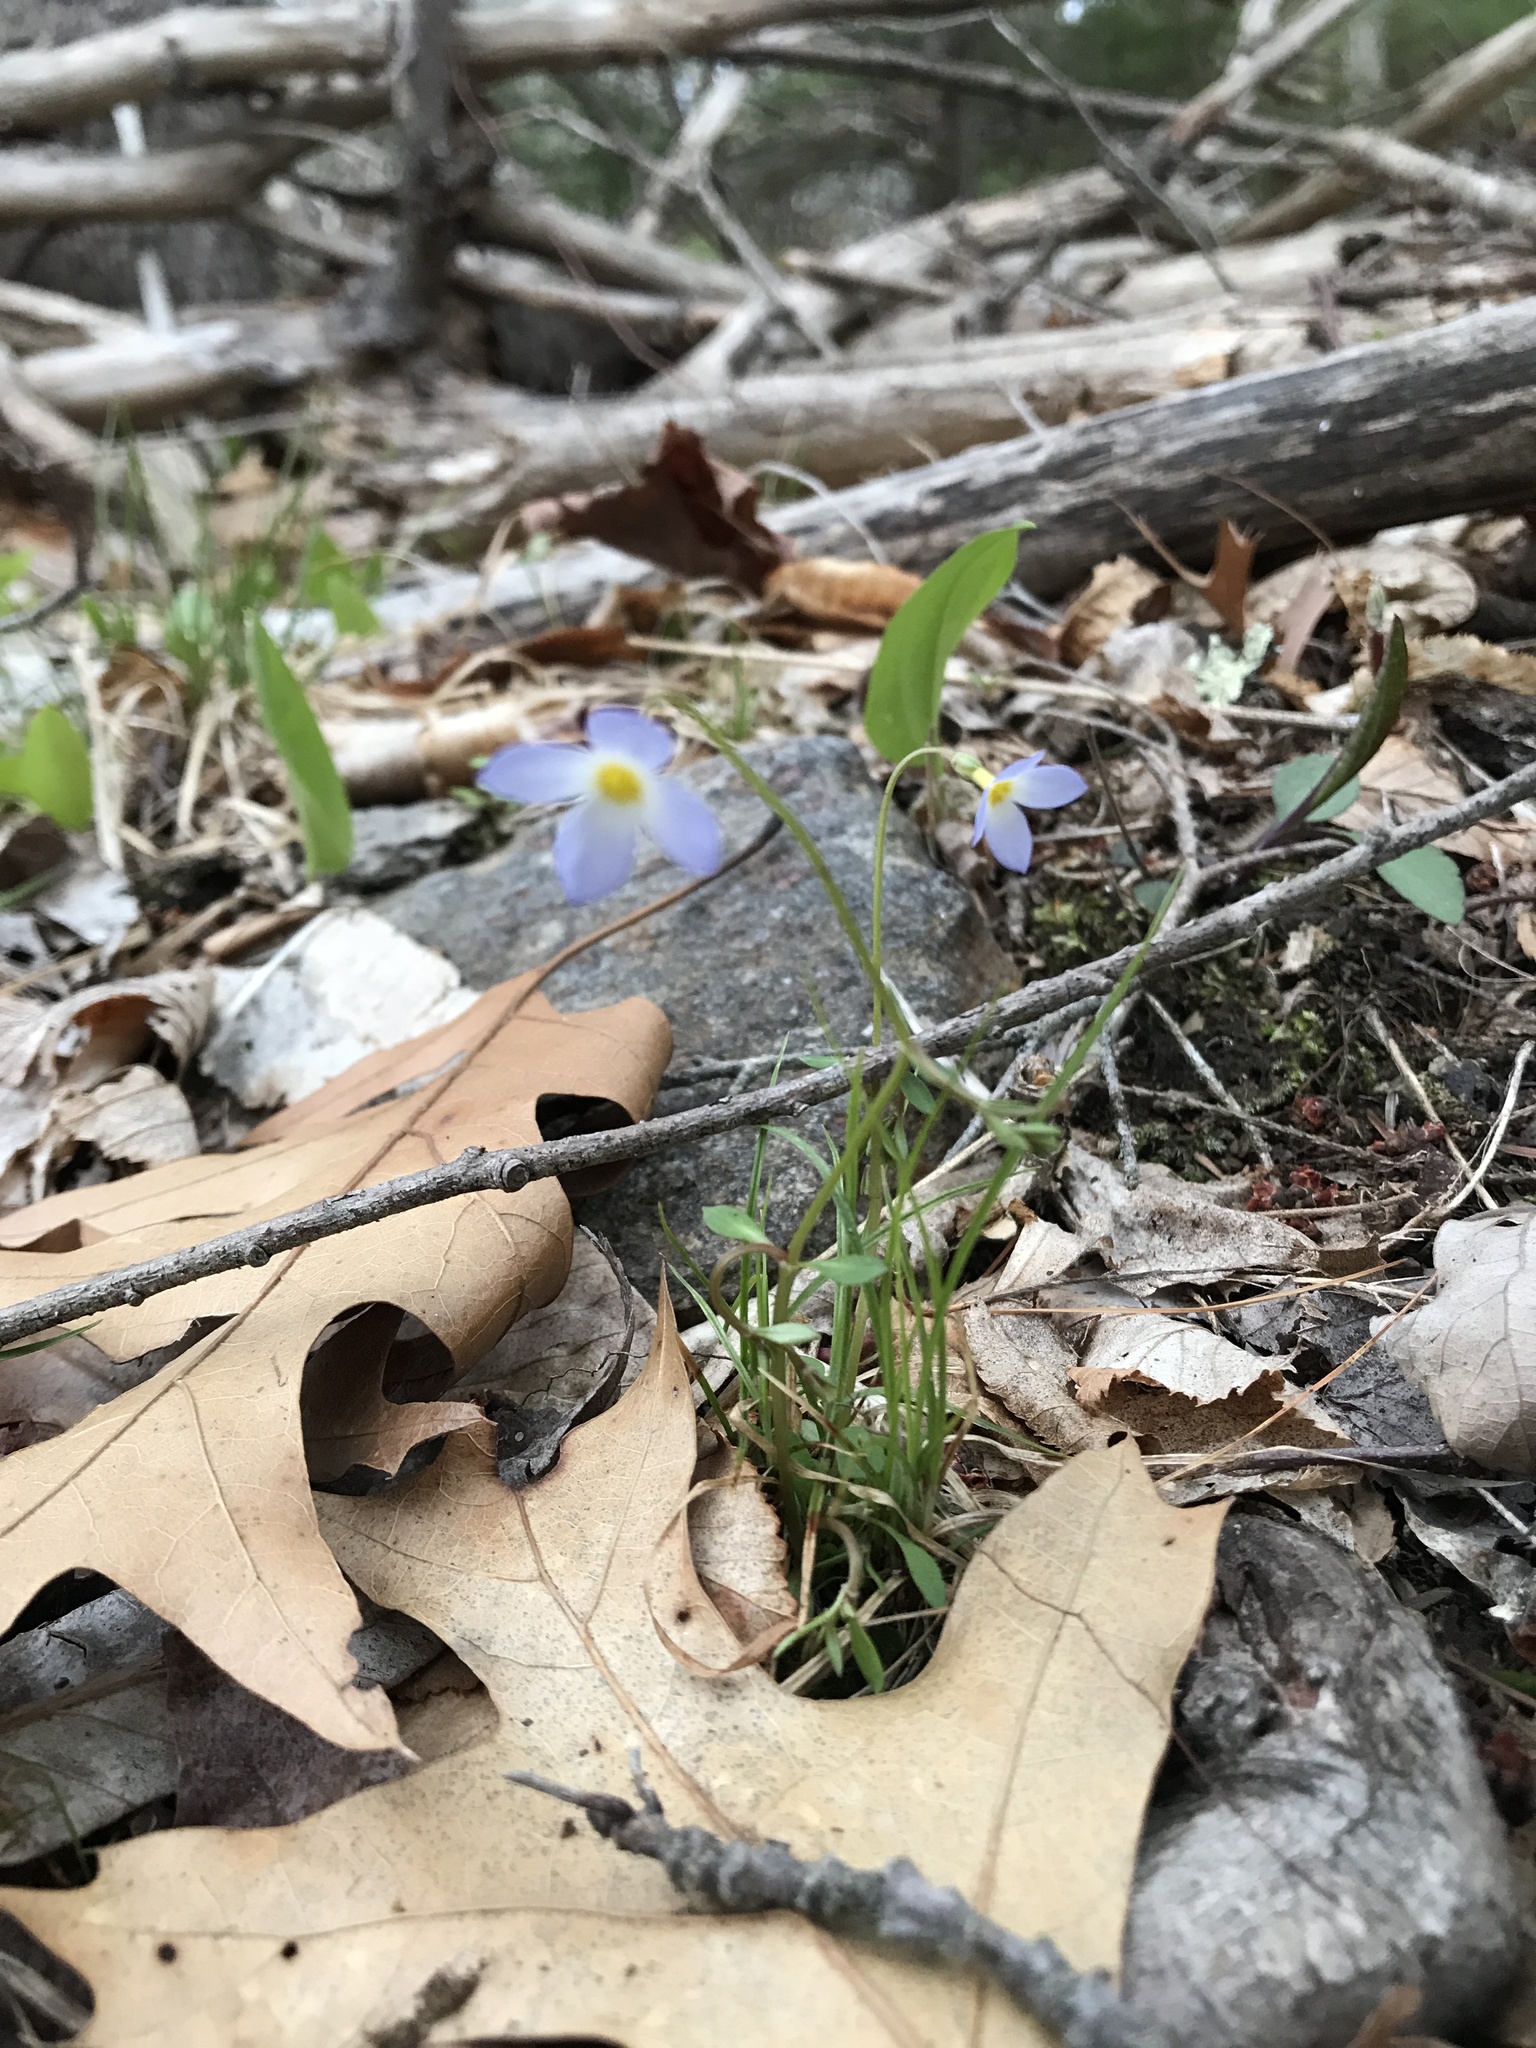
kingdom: Plantae
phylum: Tracheophyta
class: Magnoliopsida
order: Gentianales
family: Rubiaceae
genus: Houstonia
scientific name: Houstonia caerulea
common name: Bluets
